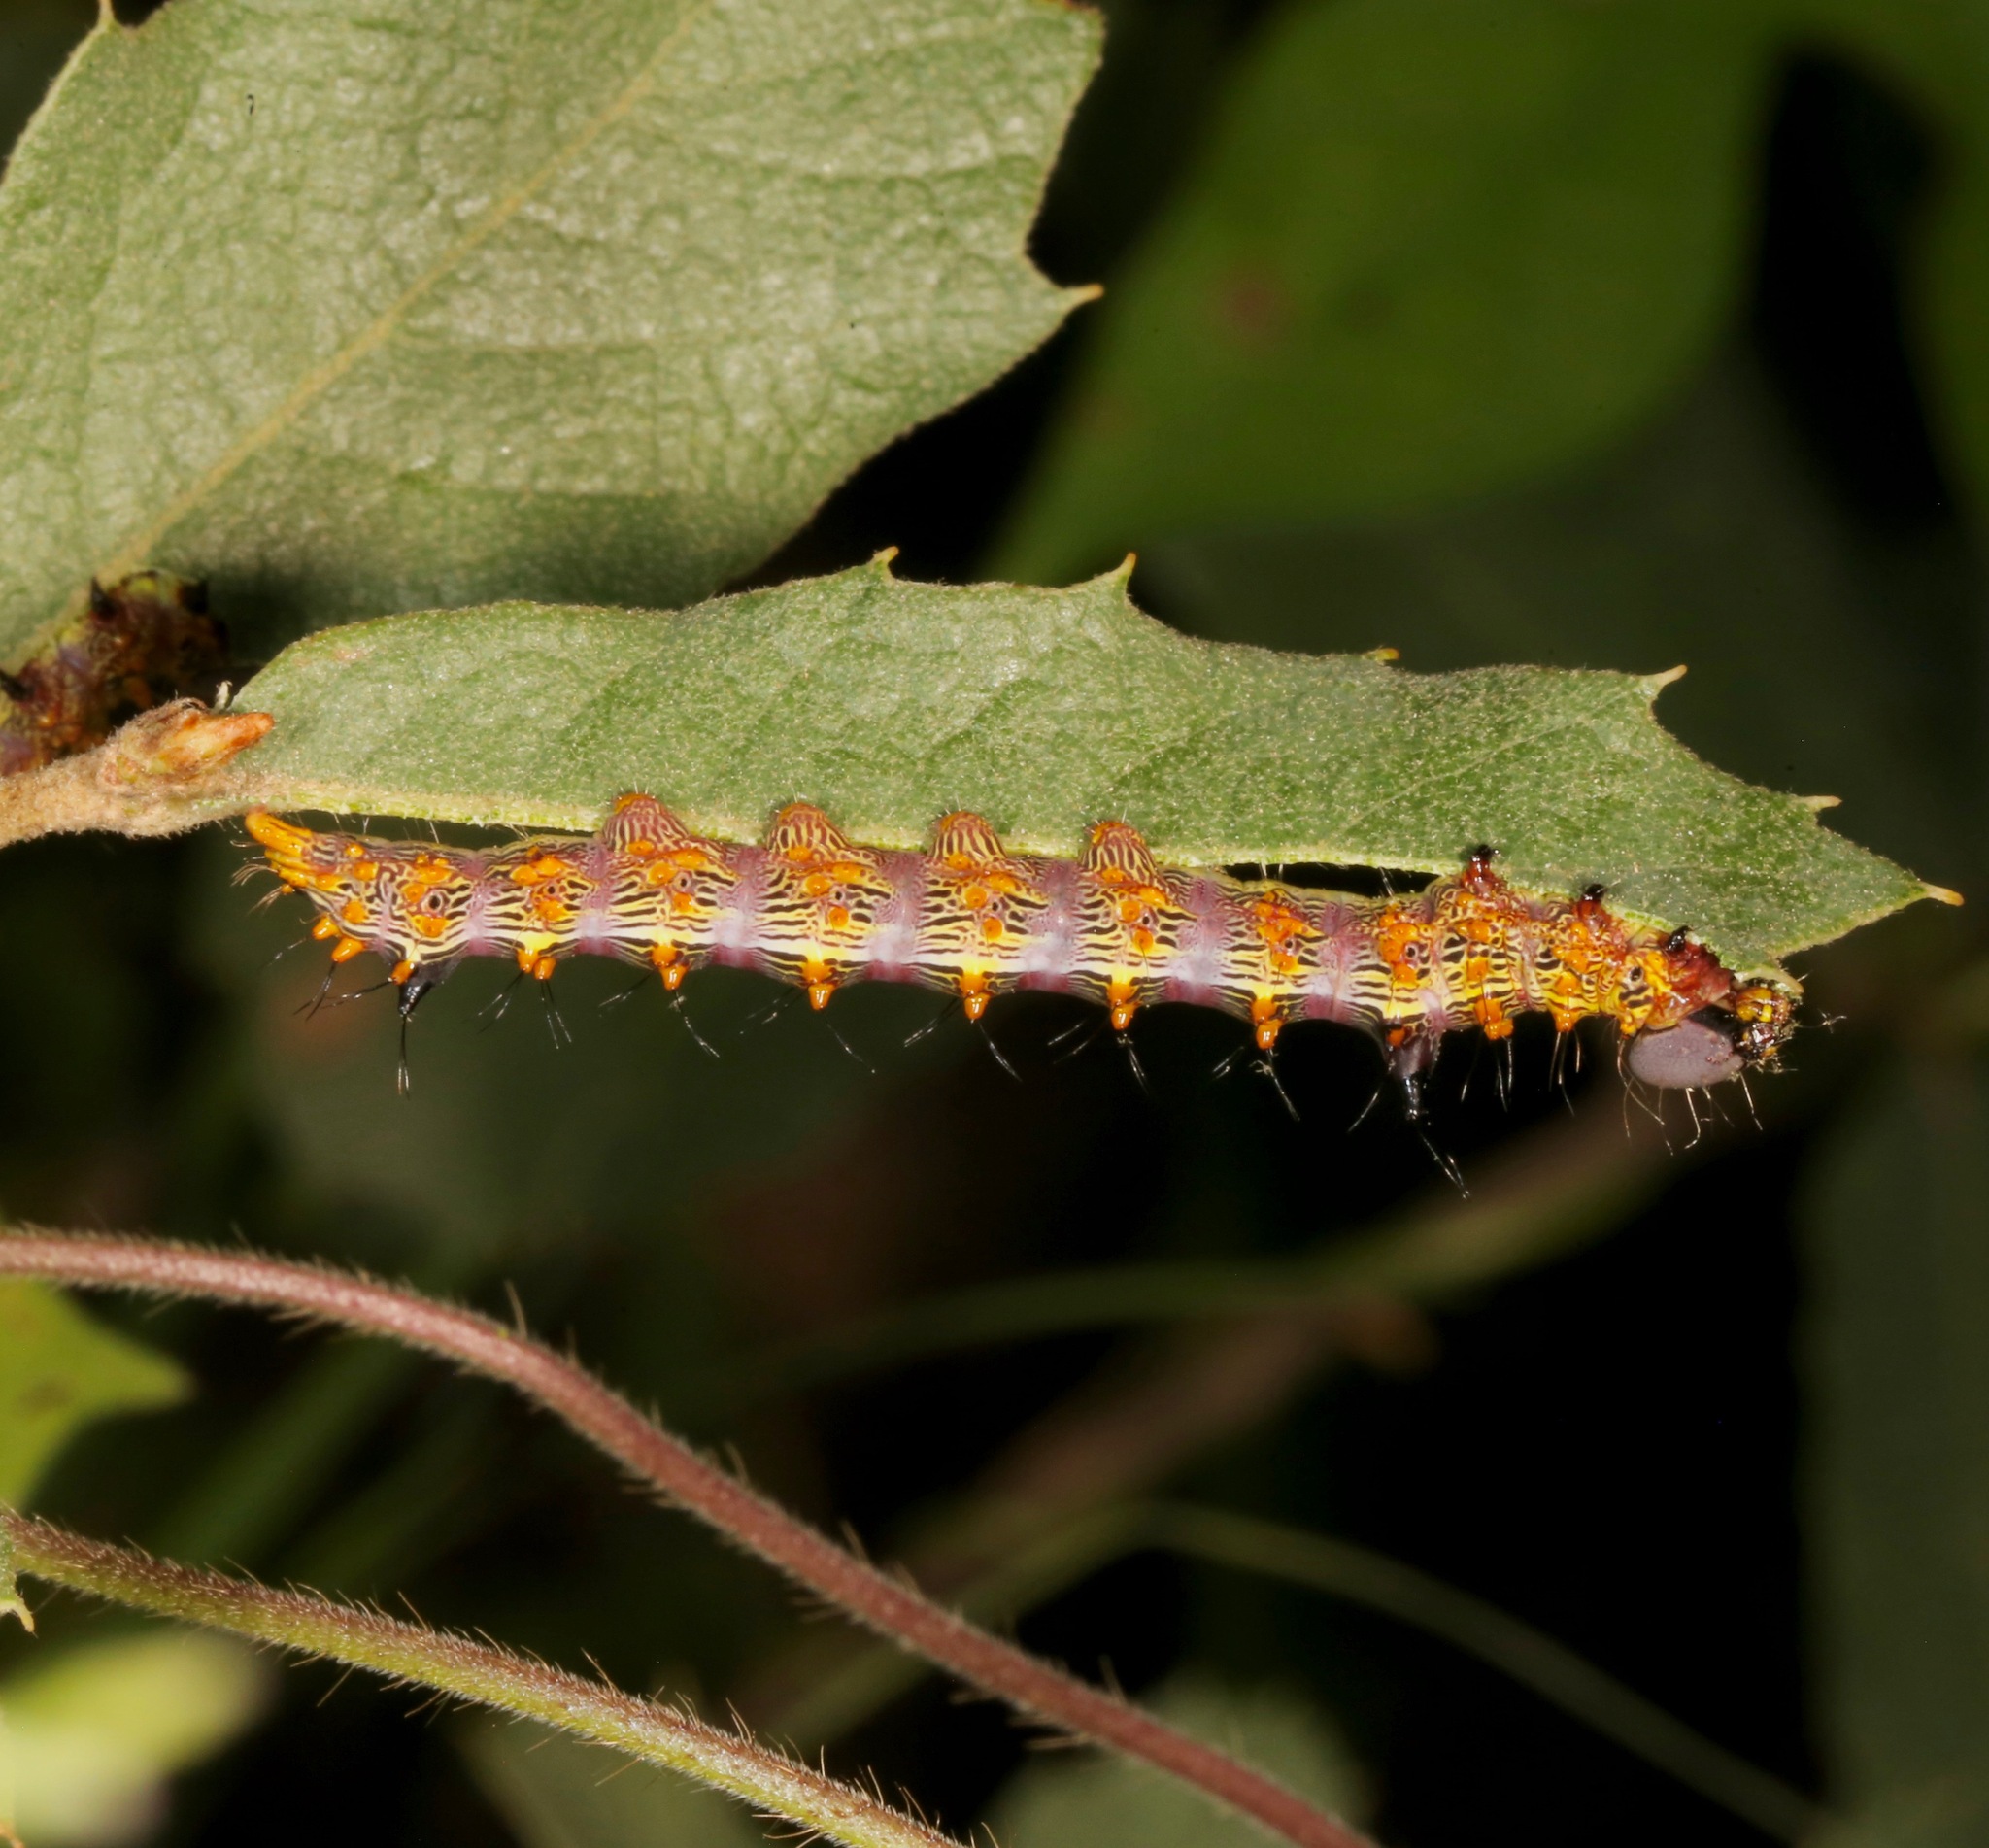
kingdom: Animalia
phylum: Arthropoda
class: Insecta
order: Lepidoptera
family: Notodontidae
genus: Schizura
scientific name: Schizura biedermani
